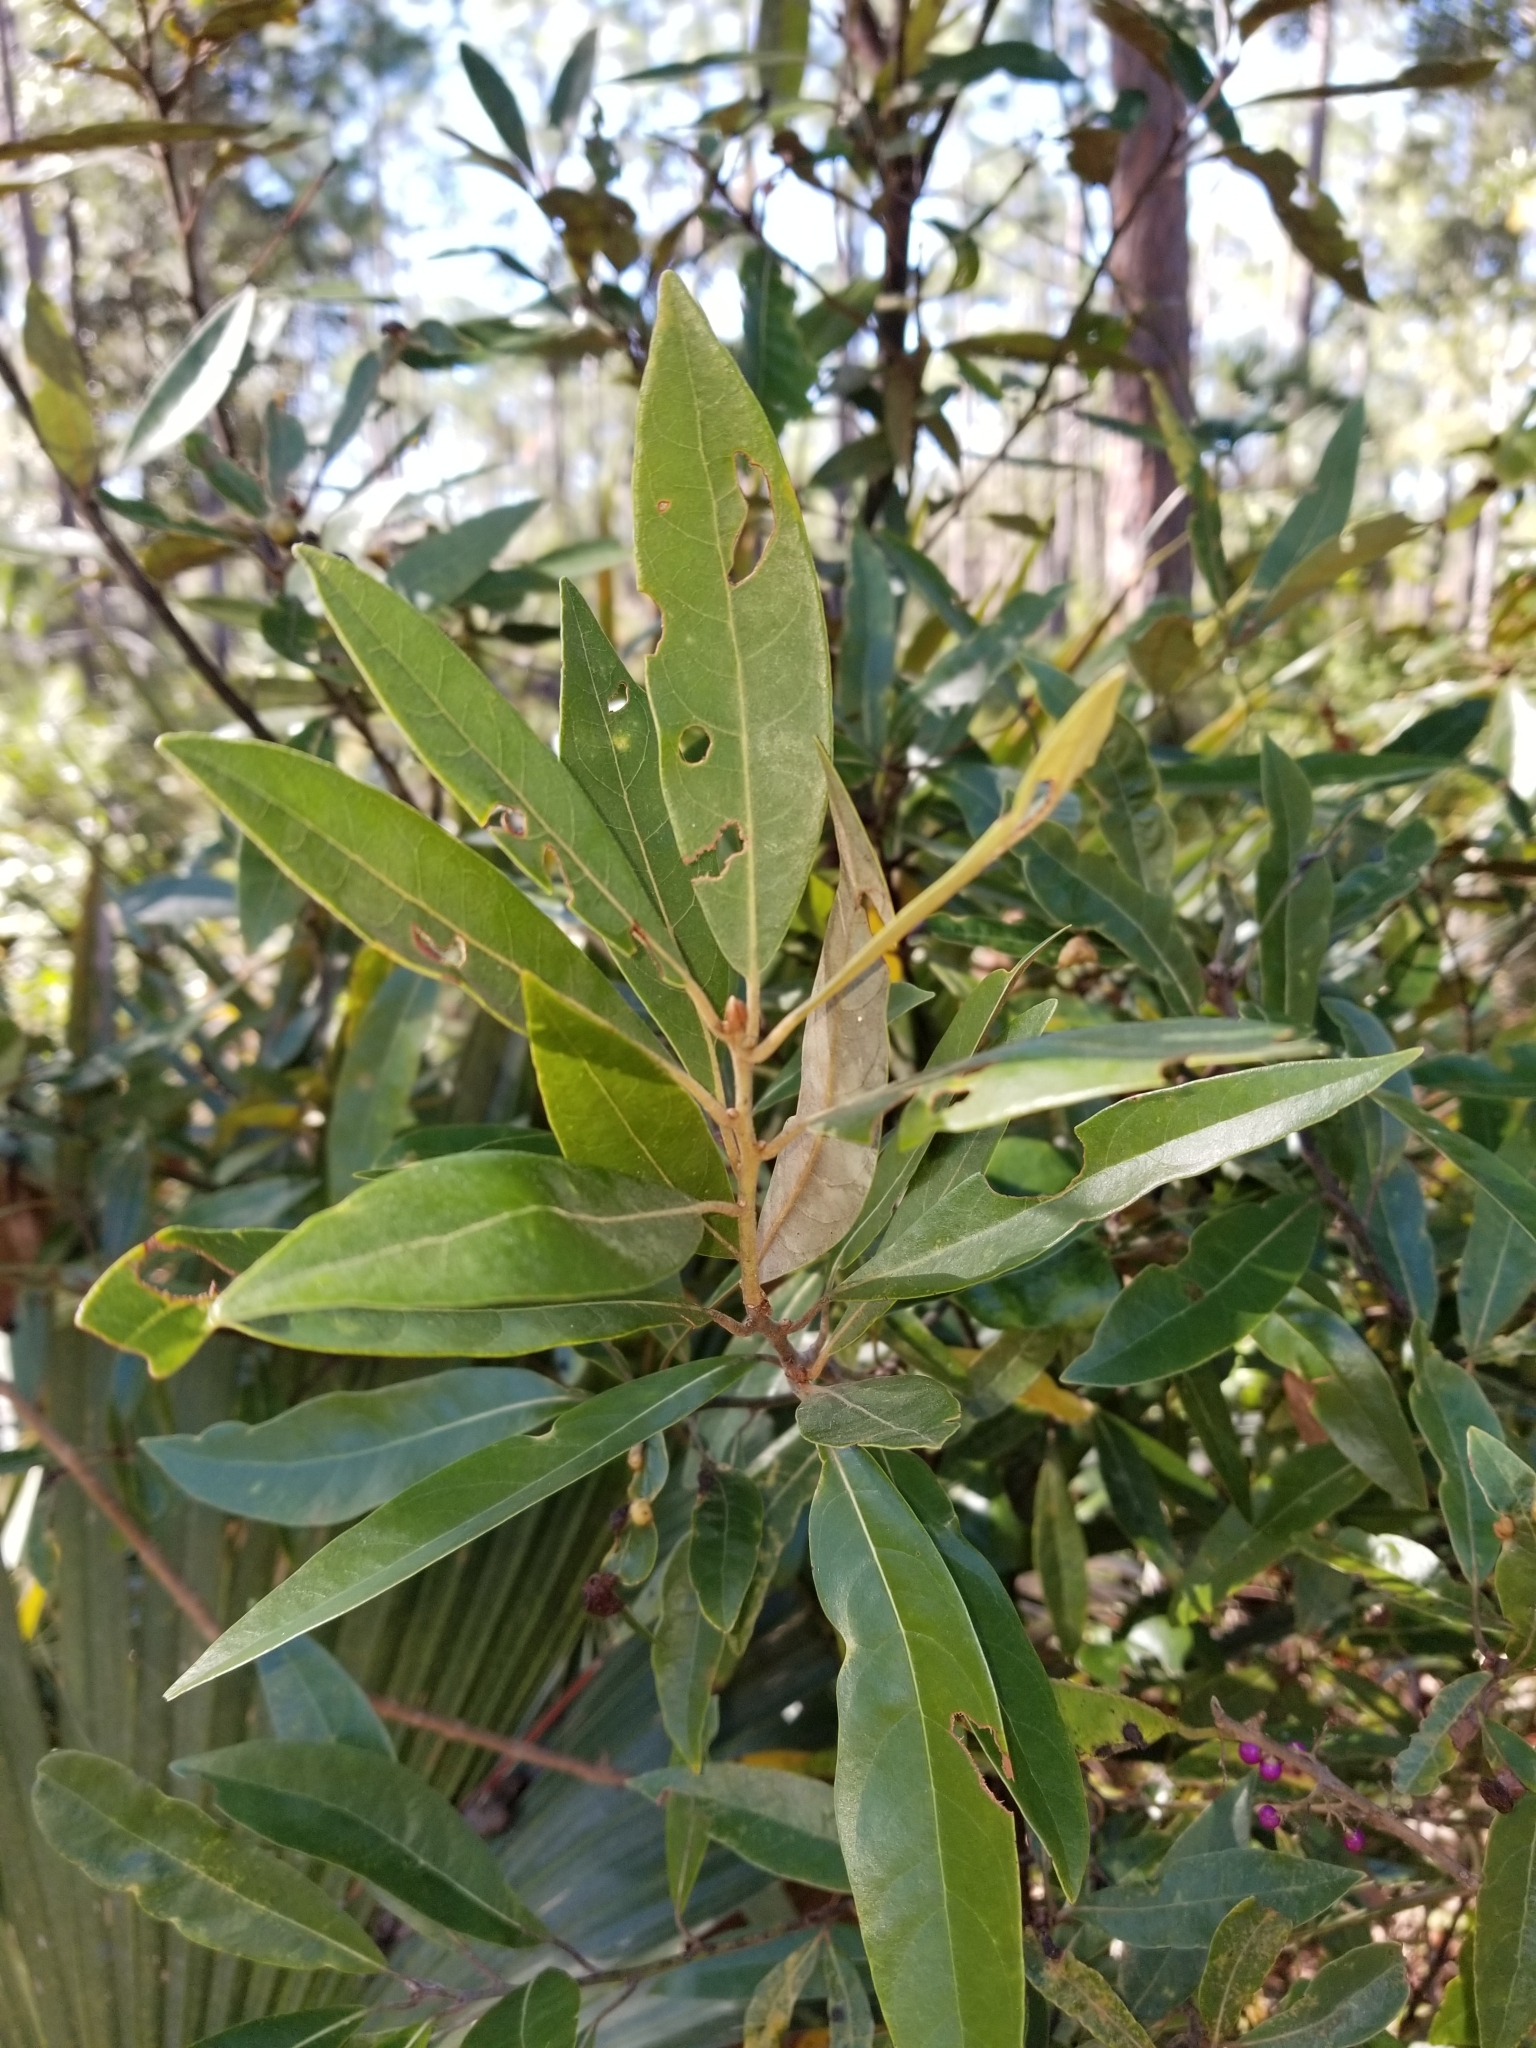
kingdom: Plantae
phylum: Tracheophyta
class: Magnoliopsida
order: Laurales
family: Lauraceae
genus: Persea
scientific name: Persea palustris
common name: Swampbay
